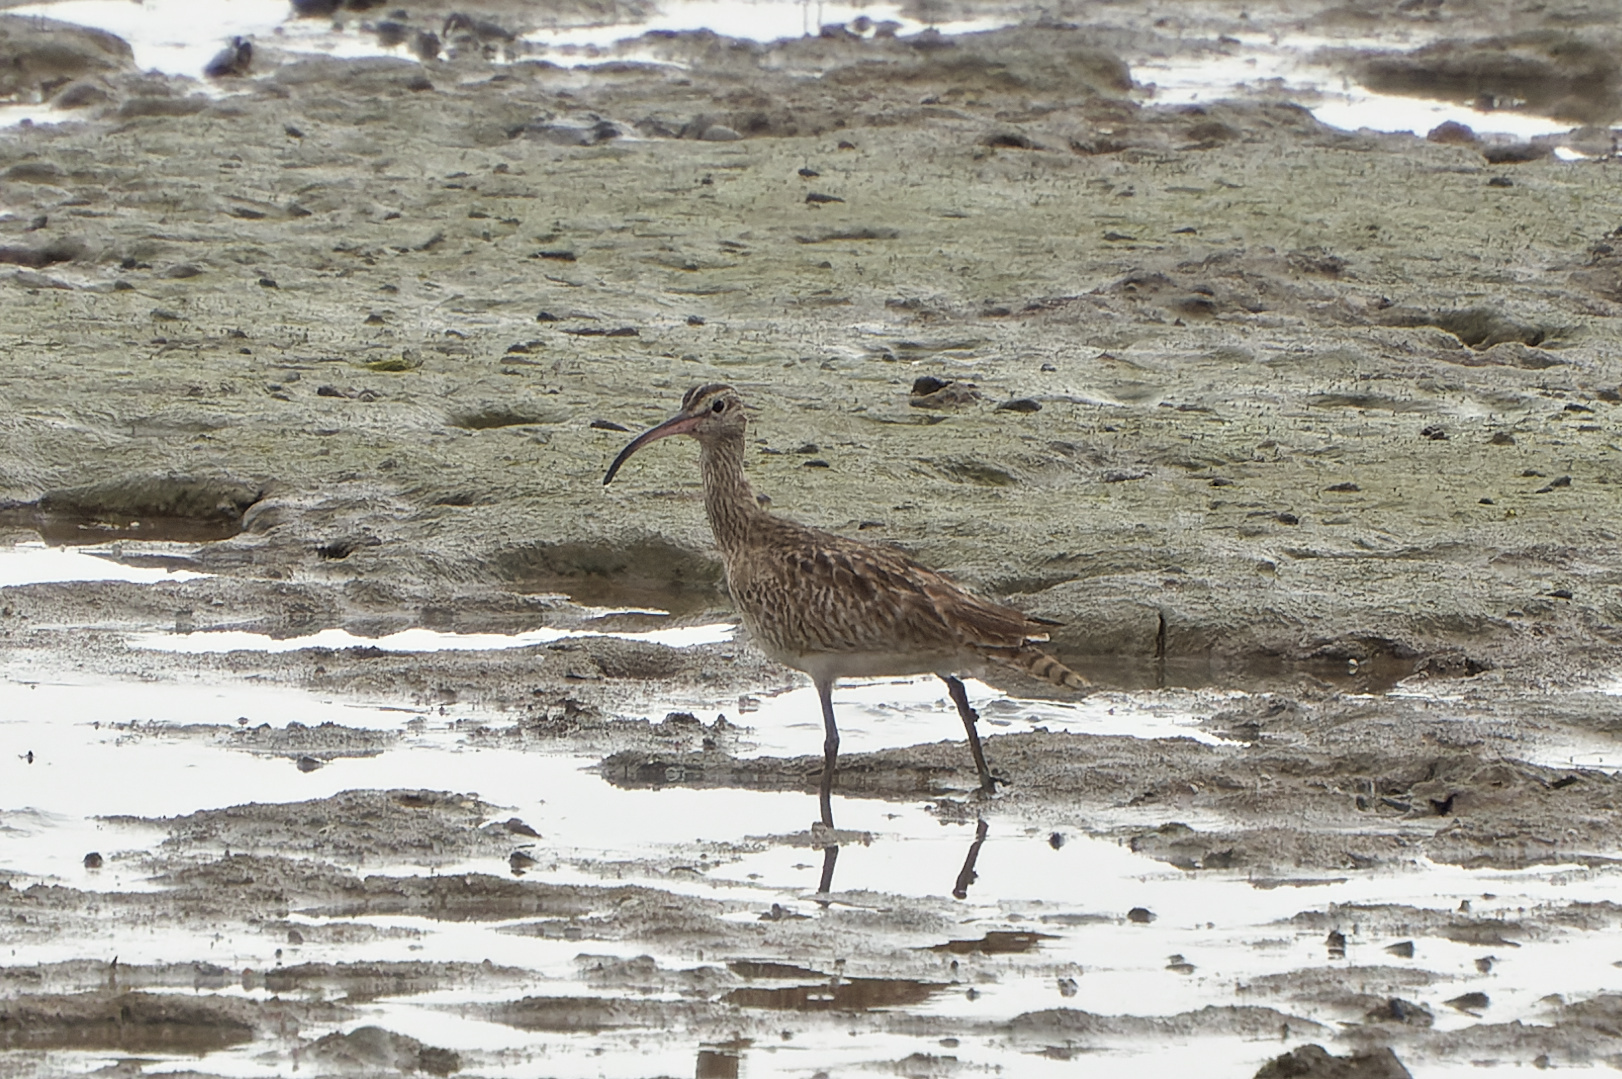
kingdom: Animalia
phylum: Chordata
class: Aves
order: Charadriiformes
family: Scolopacidae
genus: Numenius
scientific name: Numenius phaeopus
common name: Whimbrel
